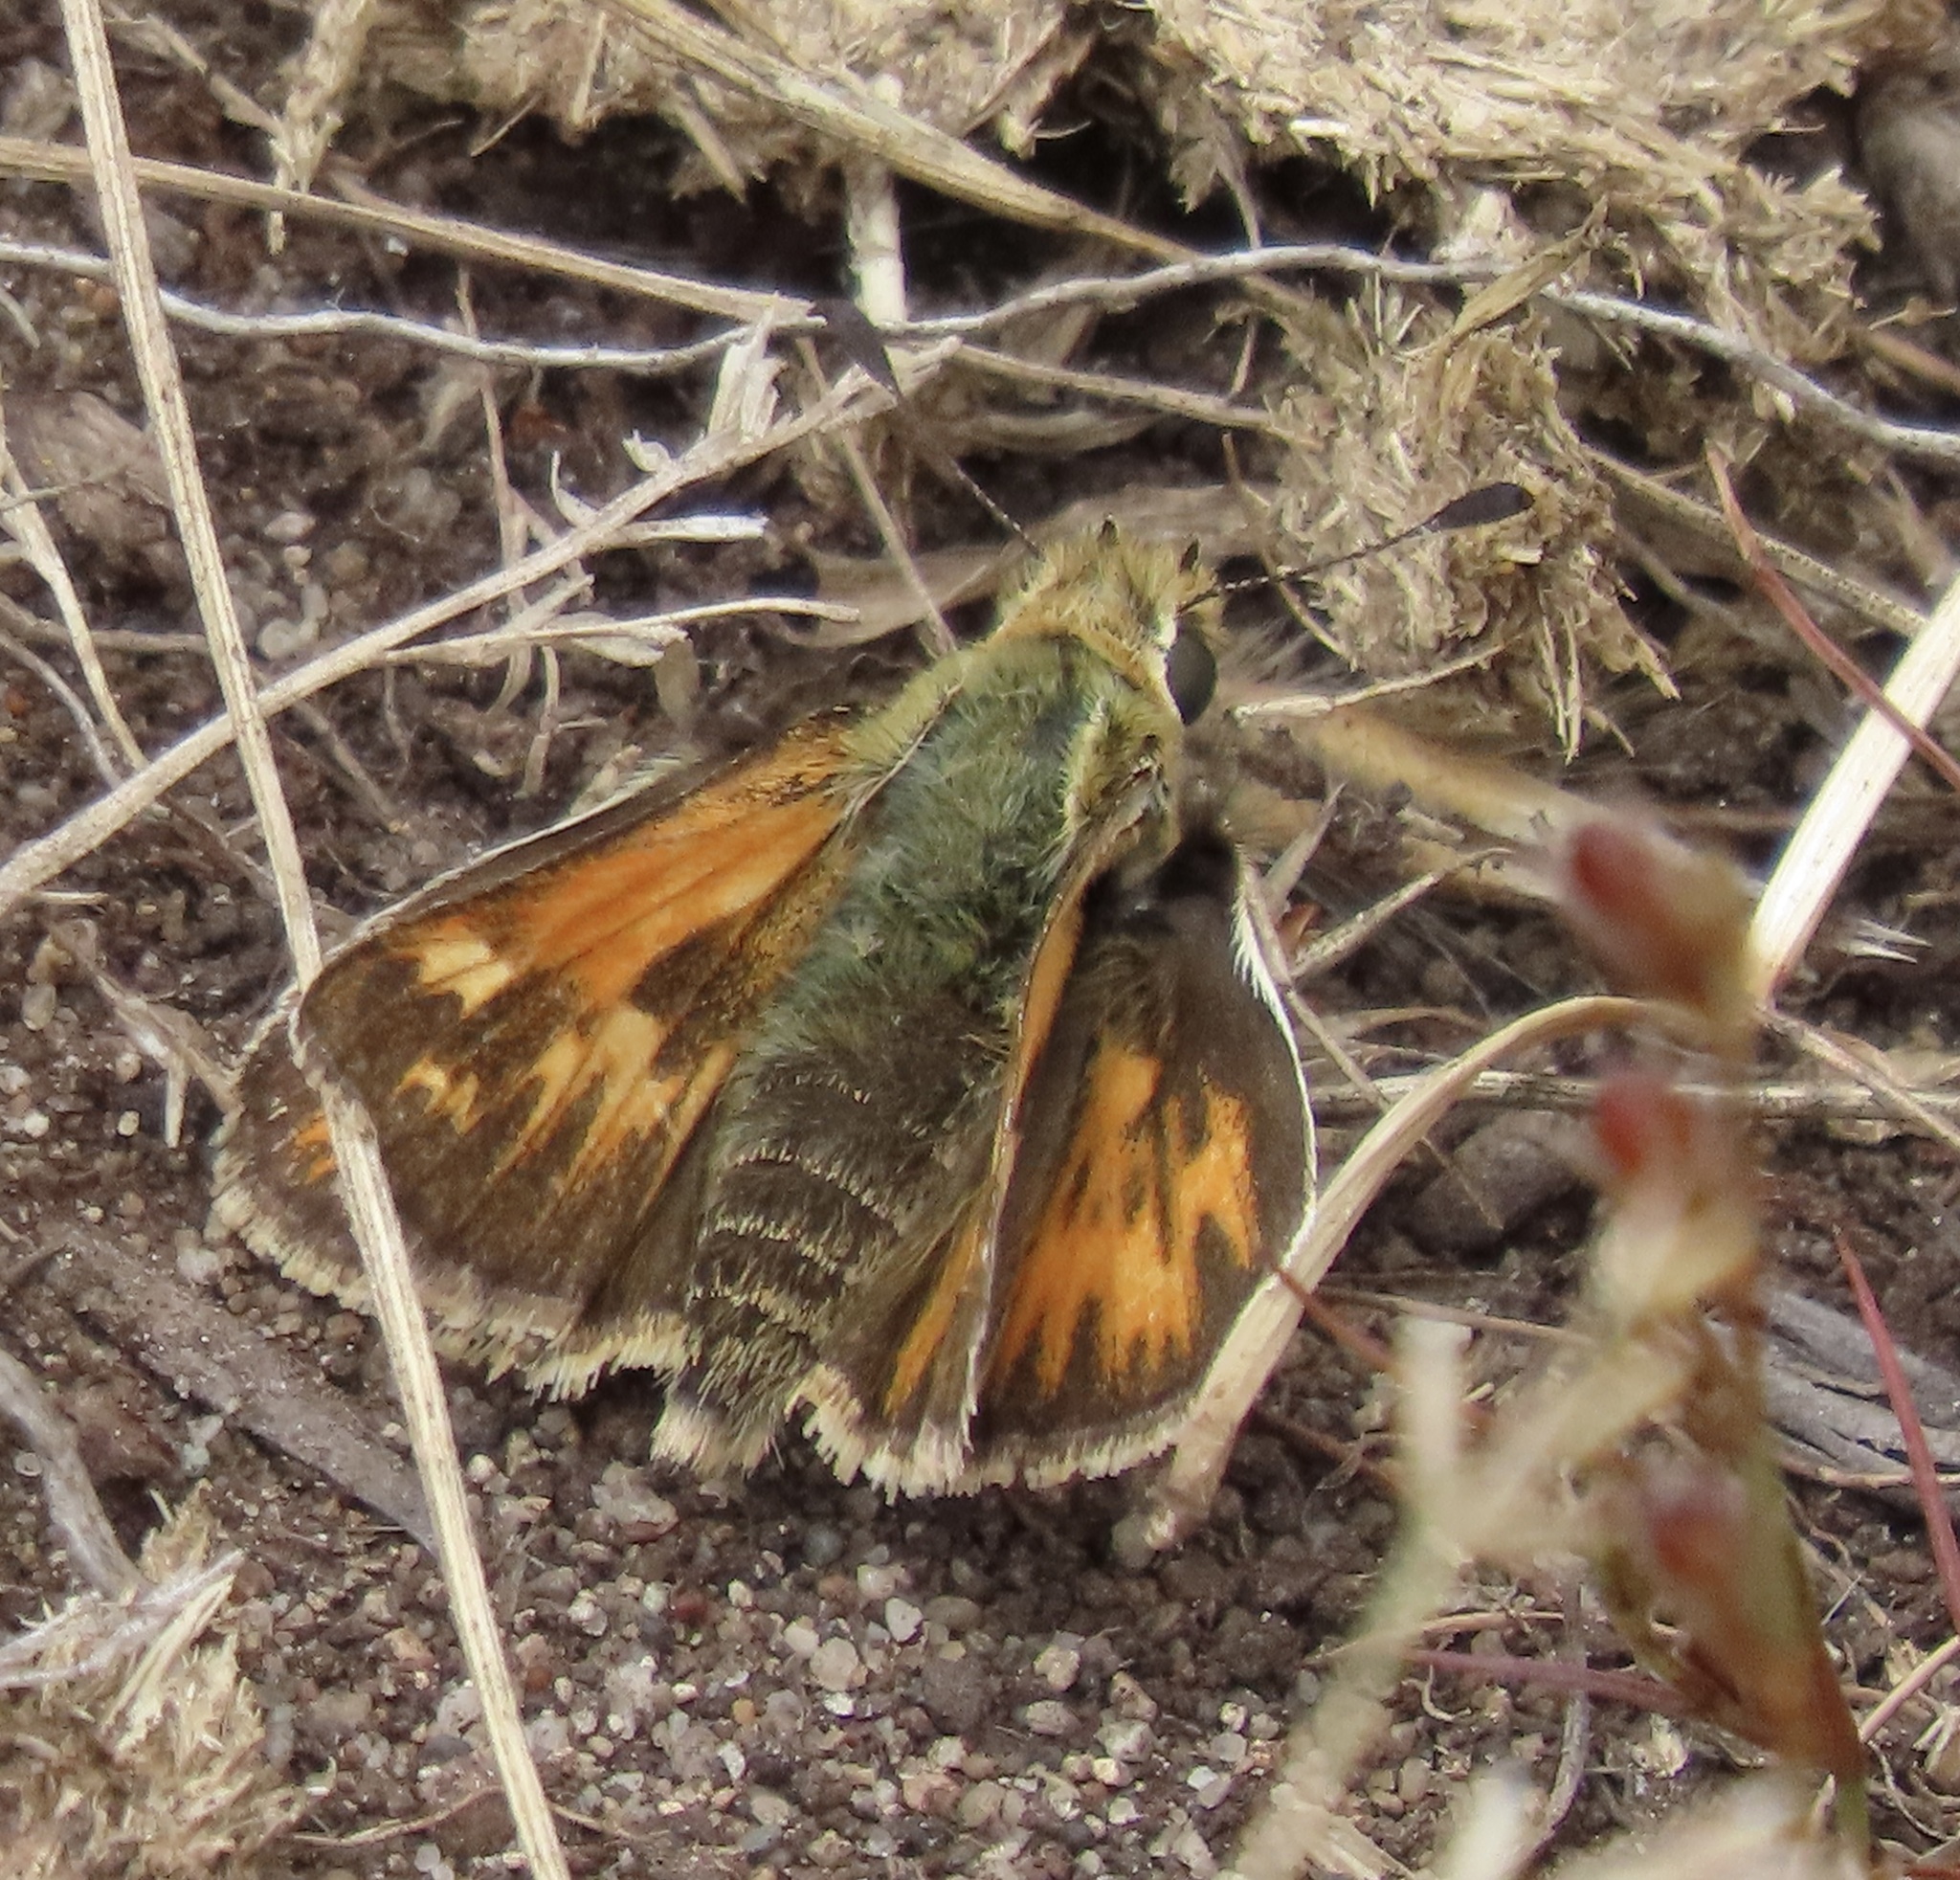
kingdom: Animalia
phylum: Arthropoda
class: Insecta
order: Lepidoptera
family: Hesperiidae
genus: Polites
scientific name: Polites sabuleti
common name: Sandhill skipper
